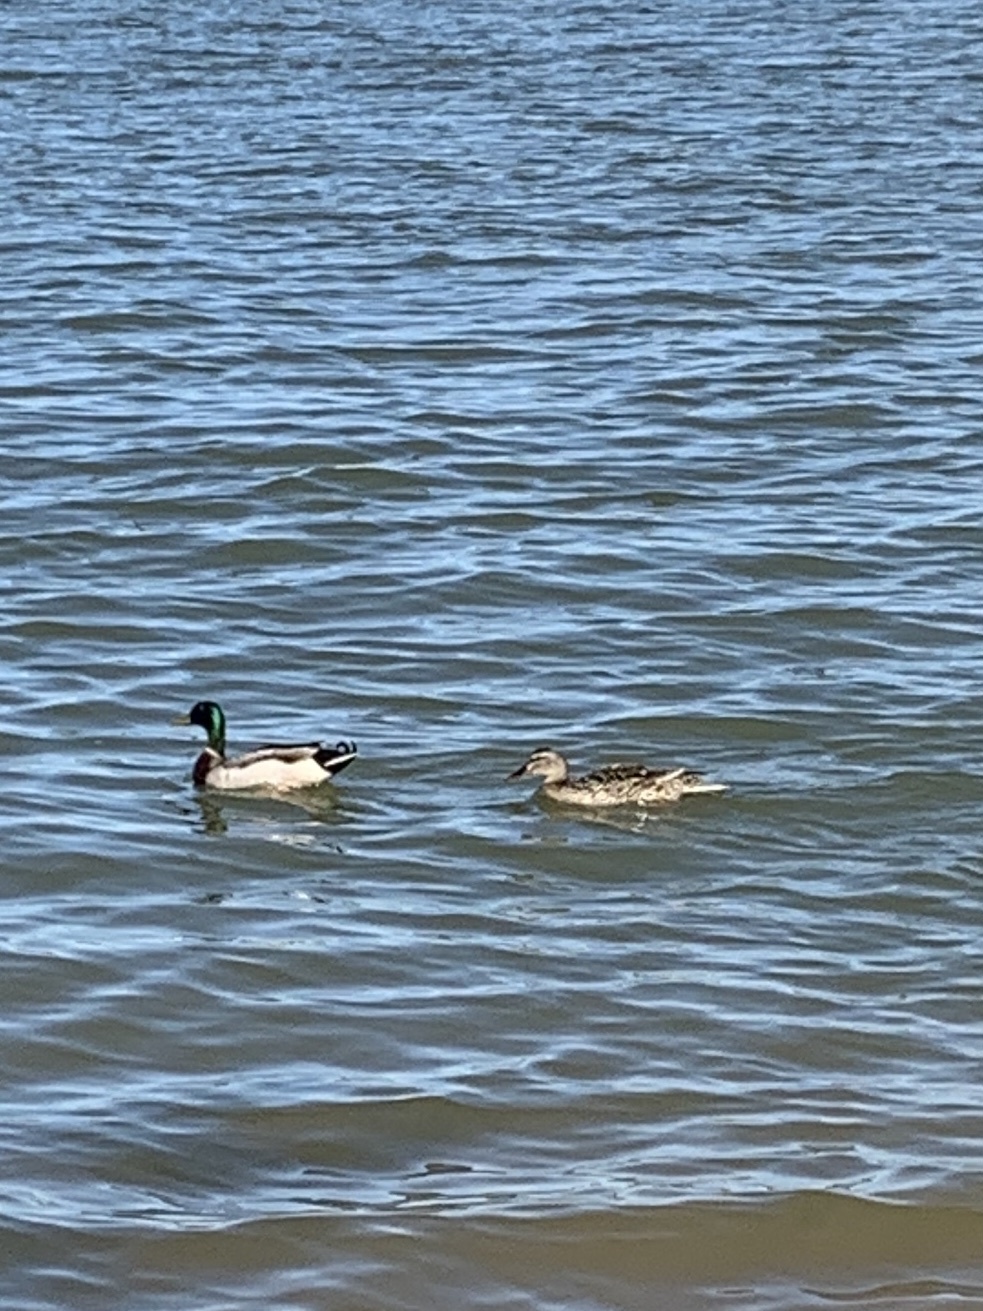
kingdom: Animalia
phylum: Chordata
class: Aves
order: Anseriformes
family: Anatidae
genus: Anas
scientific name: Anas platyrhynchos
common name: Mallard
